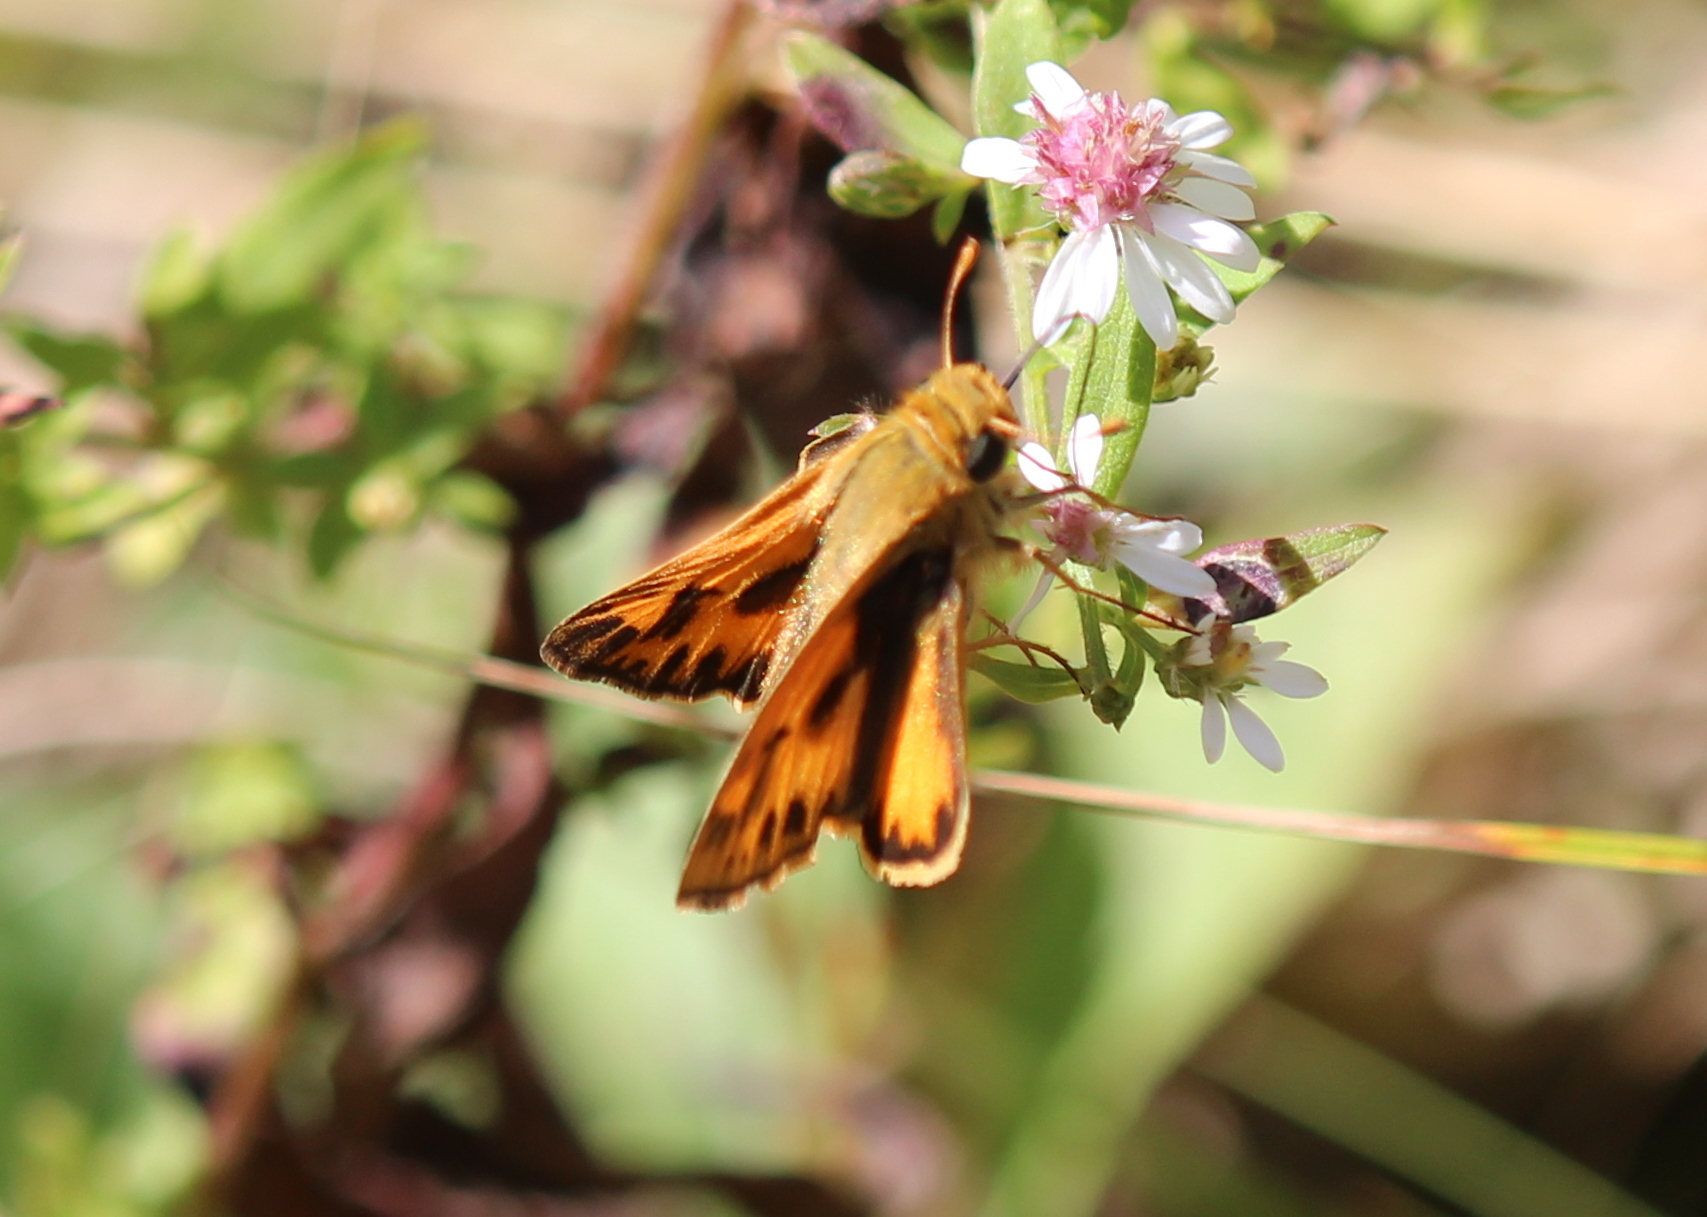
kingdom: Animalia
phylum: Arthropoda
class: Insecta
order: Lepidoptera
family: Hesperiidae
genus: Hylephila
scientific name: Hylephila phyleus
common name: Fiery skipper
